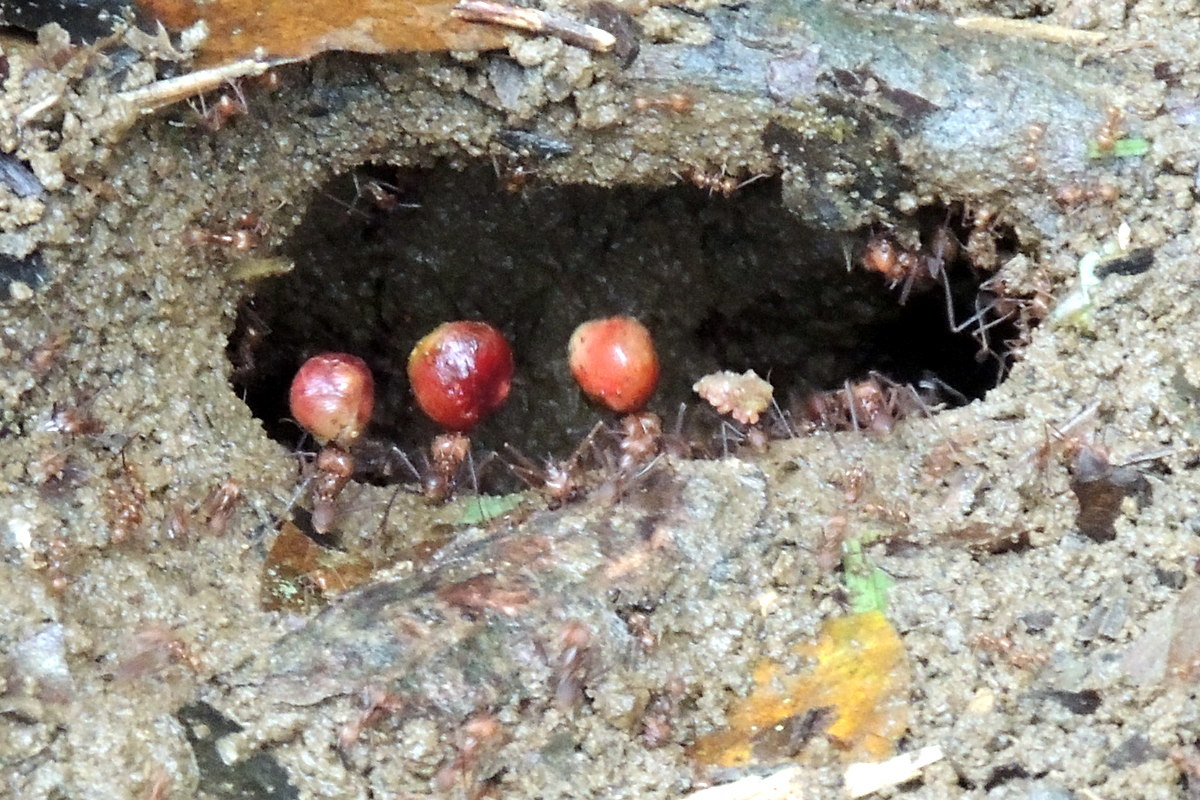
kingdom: Animalia
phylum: Arthropoda
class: Insecta
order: Hymenoptera
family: Formicidae
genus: Atta
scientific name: Atta cephalotes
